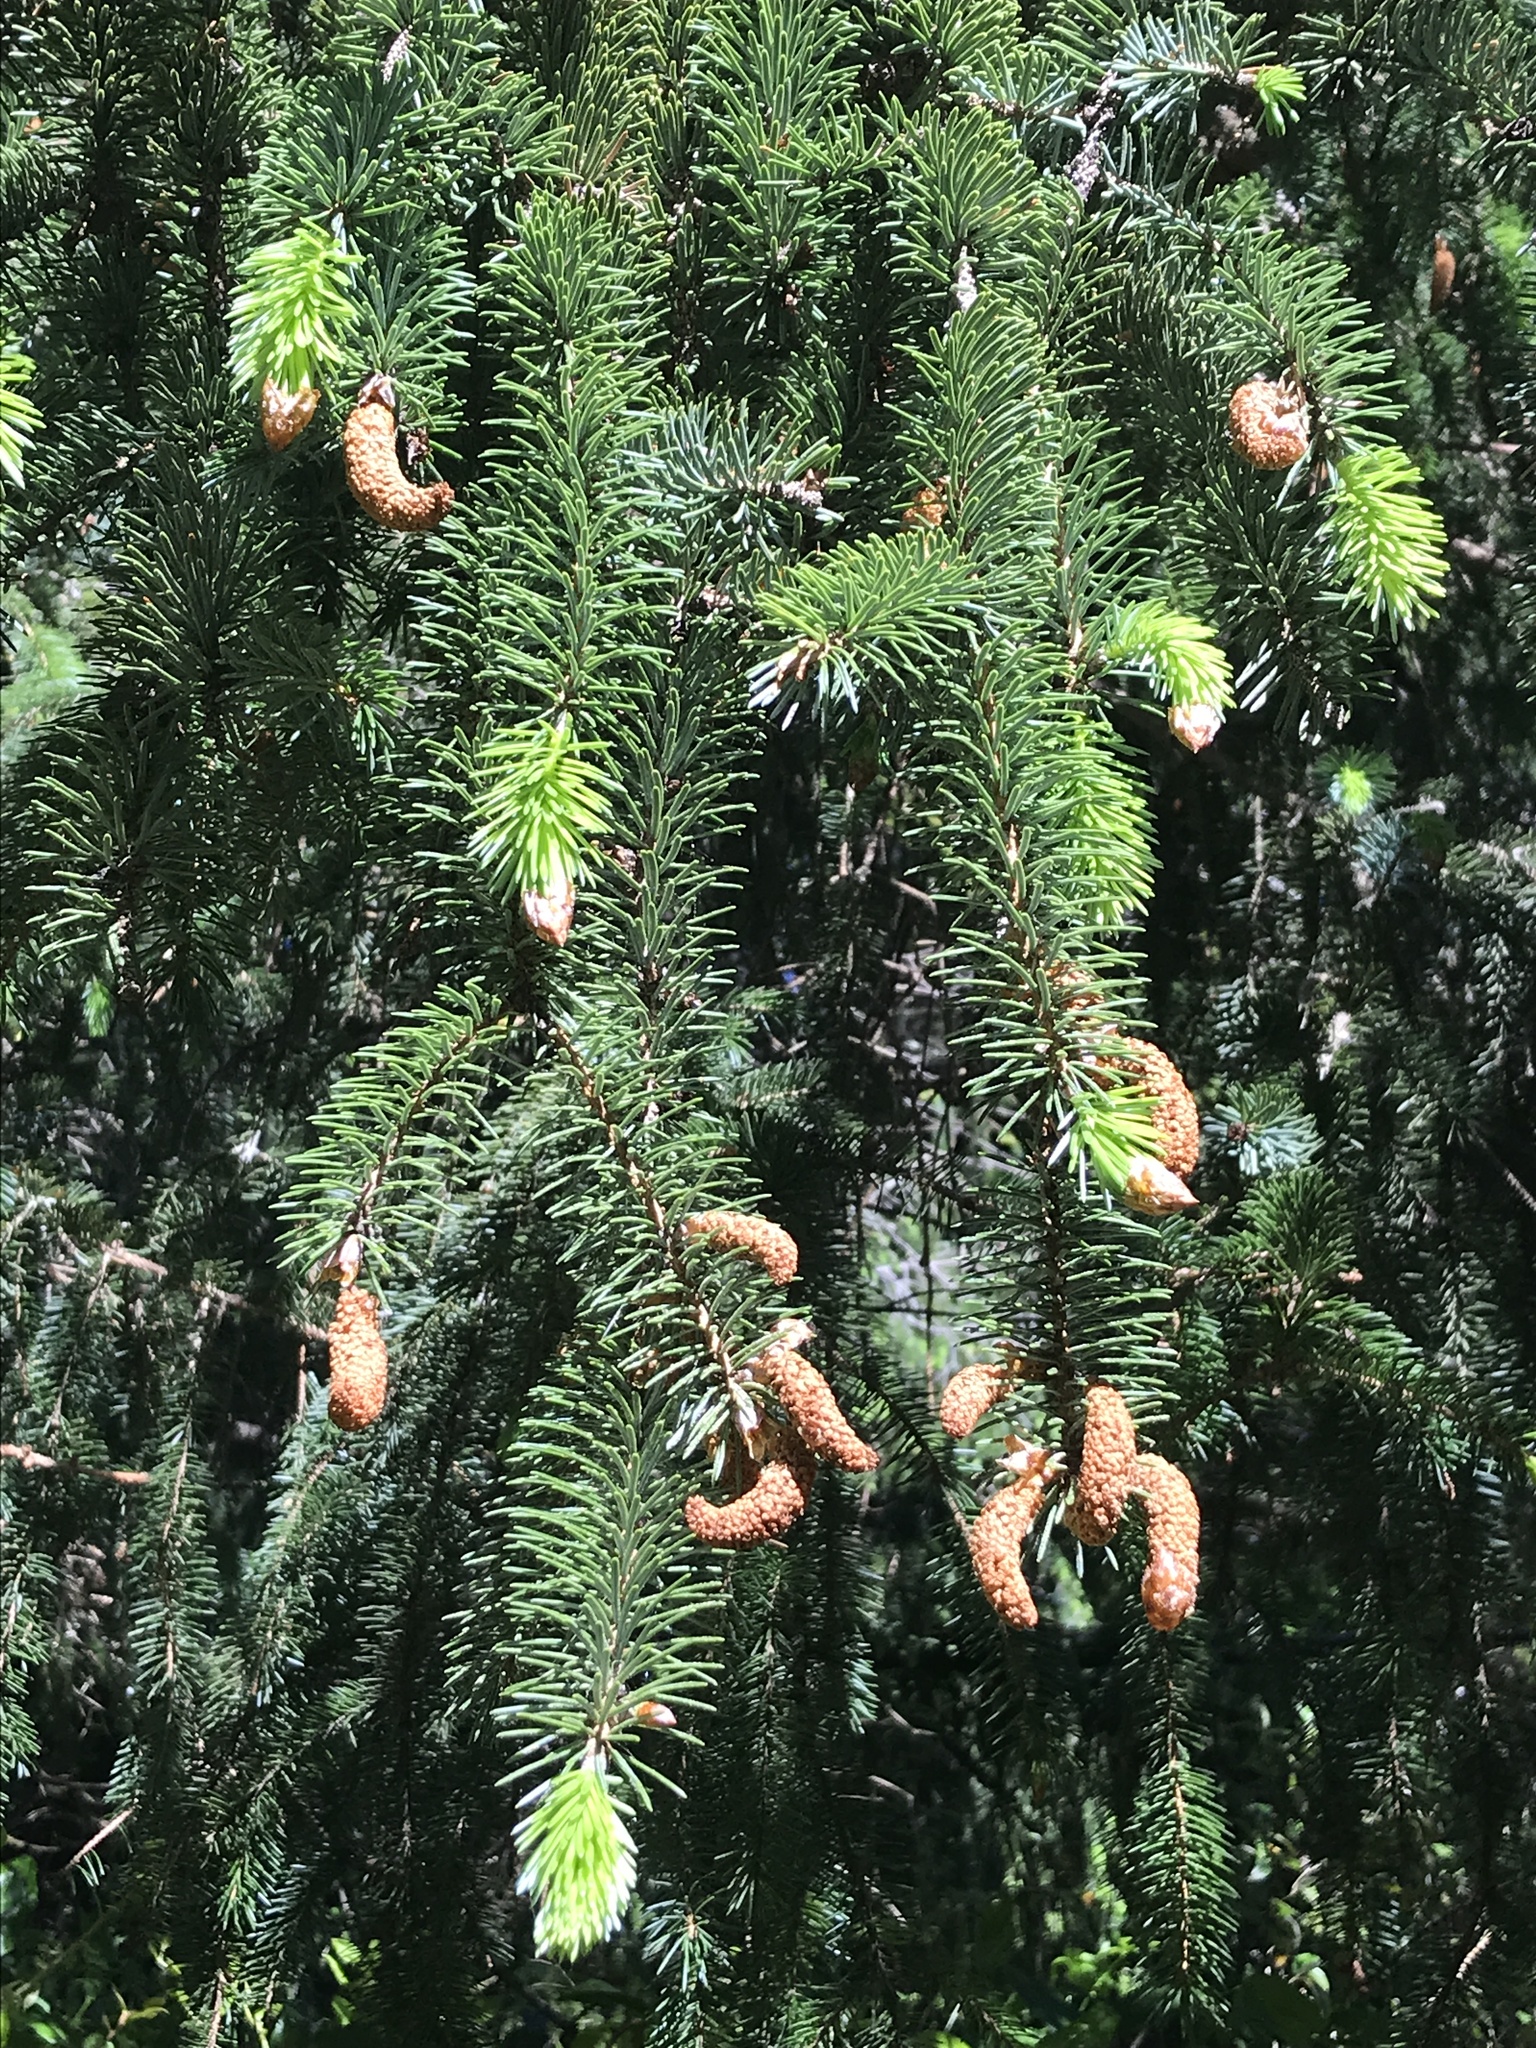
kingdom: Plantae
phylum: Tracheophyta
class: Pinopsida
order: Pinales
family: Pinaceae
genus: Picea
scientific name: Picea sitchensis
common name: Sitka spruce
